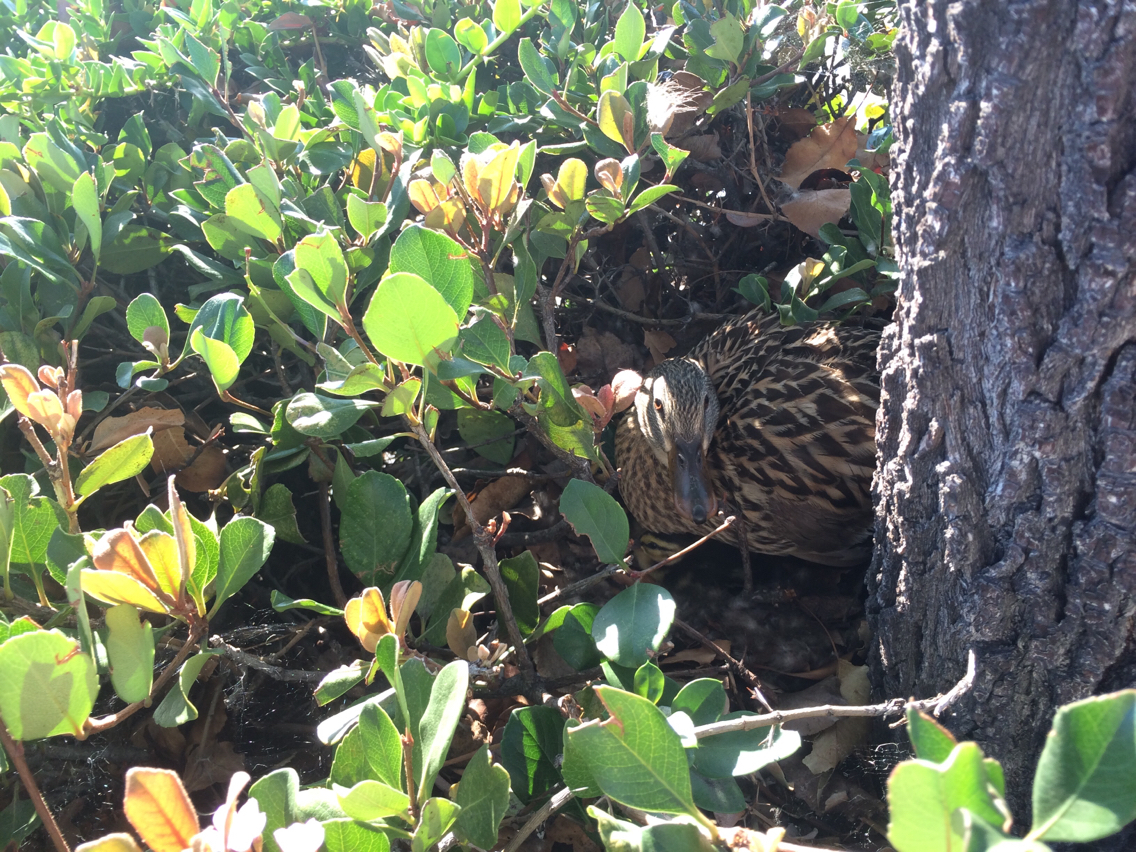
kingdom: Animalia
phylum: Chordata
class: Aves
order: Anseriformes
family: Anatidae
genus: Anas
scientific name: Anas platyrhynchos
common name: Mallard
